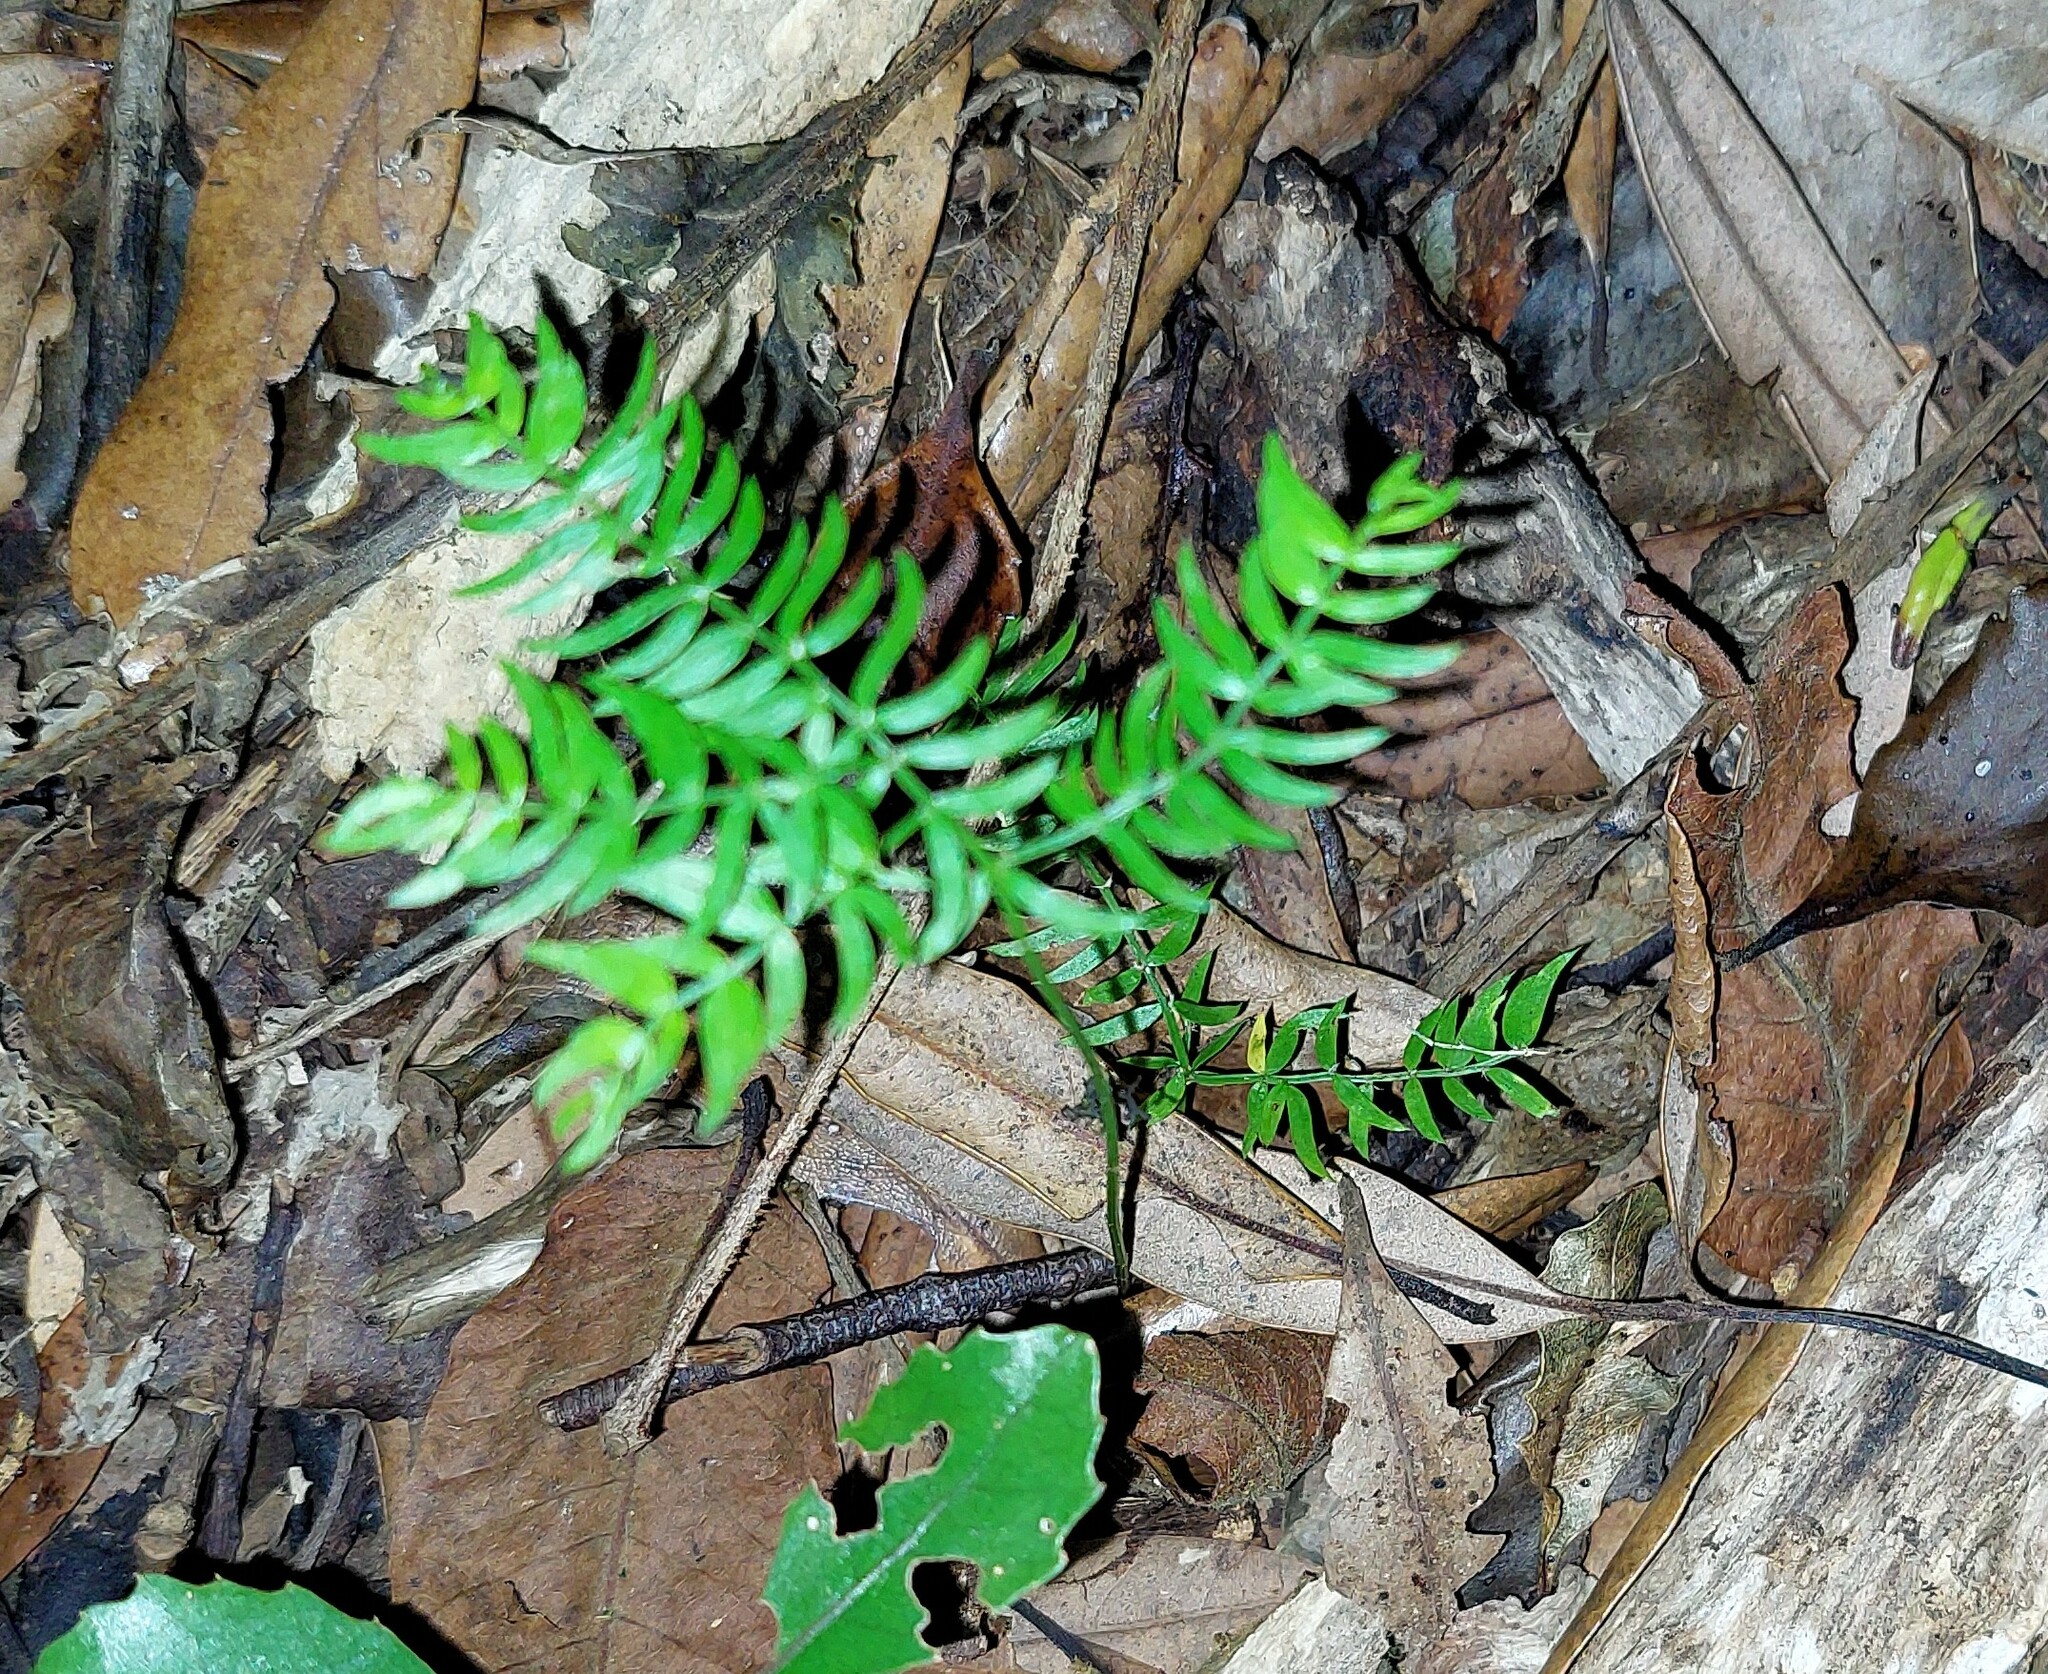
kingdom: Plantae
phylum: Tracheophyta
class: Liliopsida
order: Asparagales
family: Asparagaceae
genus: Asparagus
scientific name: Asparagus scandens
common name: Asparagus-fern
